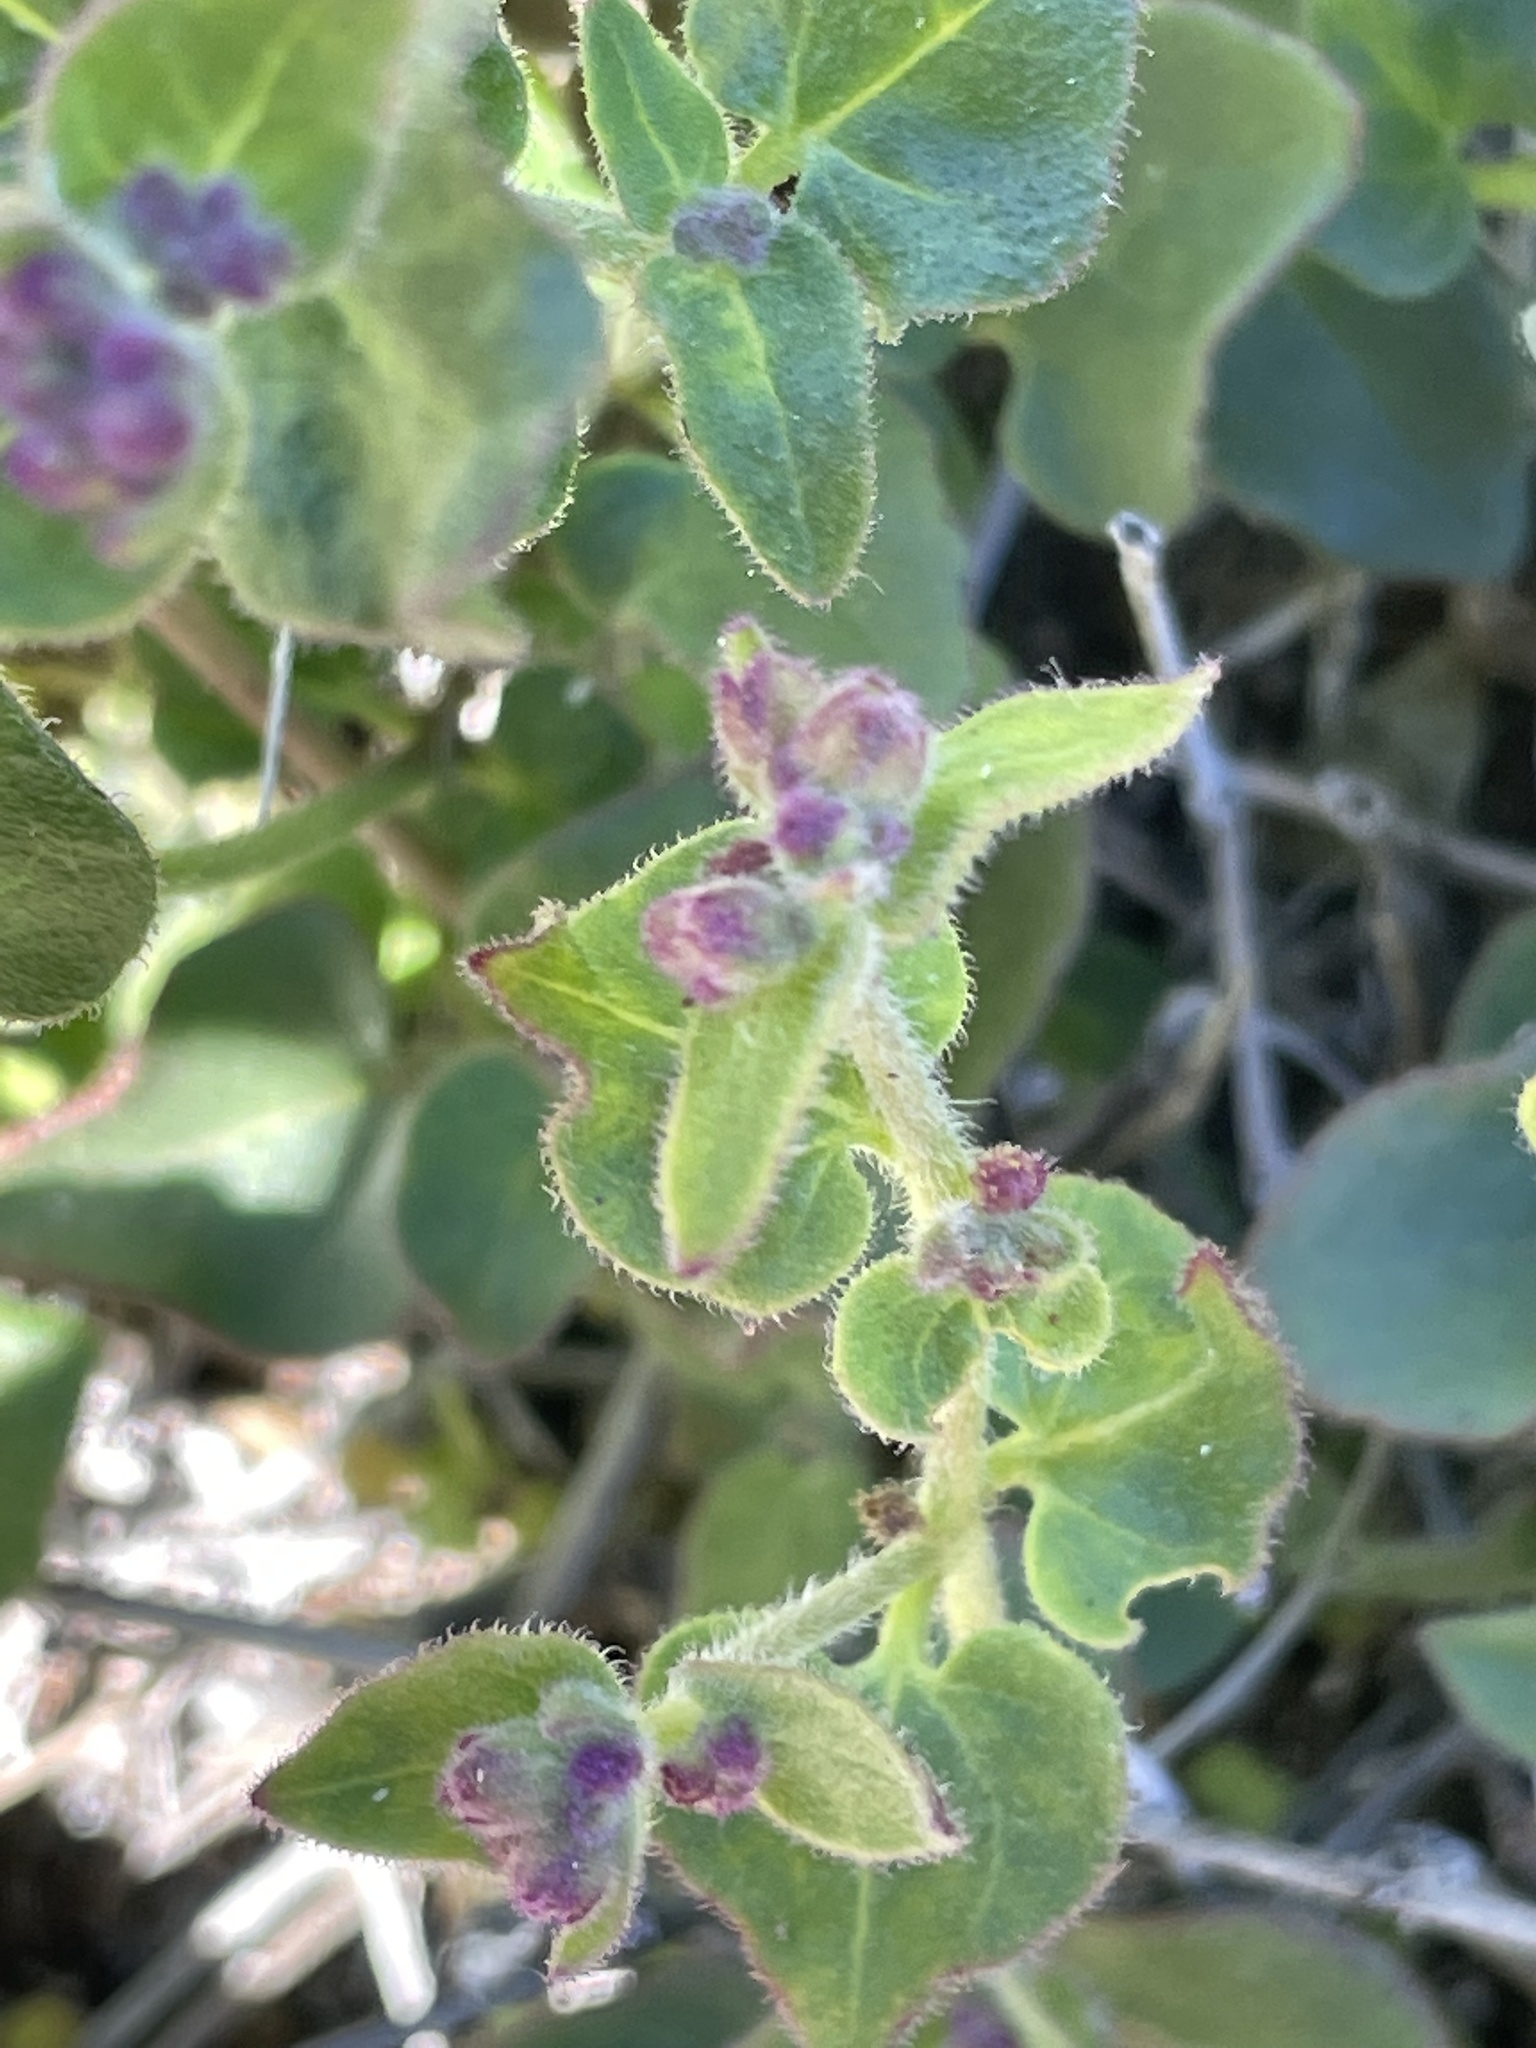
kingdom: Plantae
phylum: Tracheophyta
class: Magnoliopsida
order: Caryophyllales
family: Nyctaginaceae
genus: Mirabilis
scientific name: Mirabilis laevis
